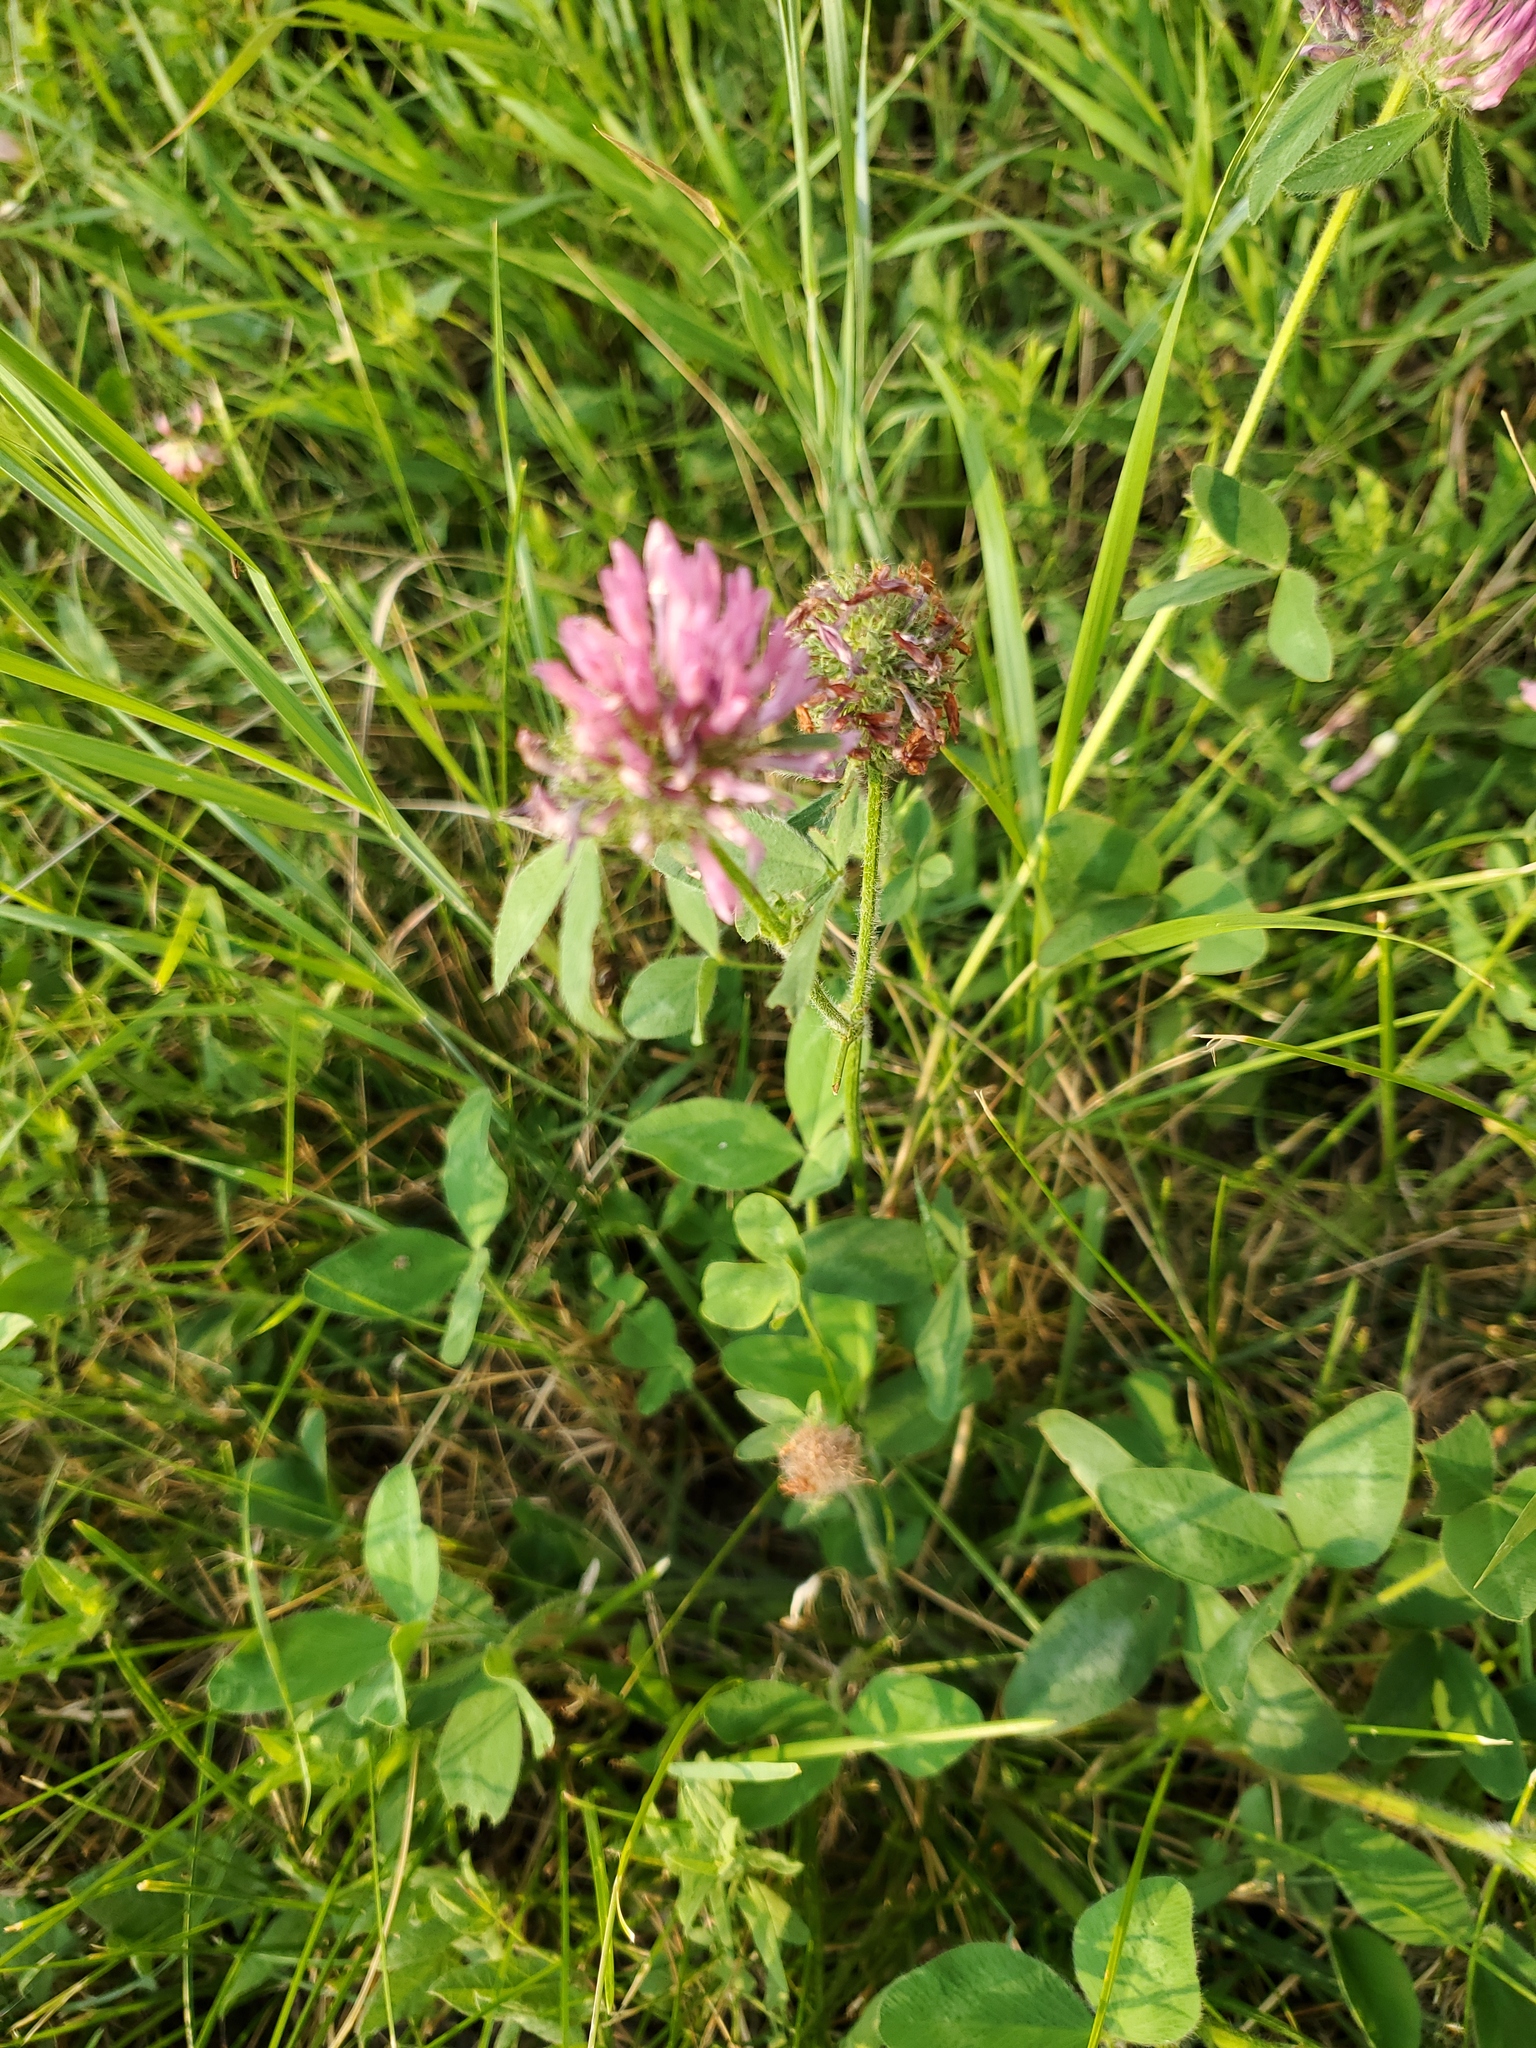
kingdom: Plantae
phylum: Tracheophyta
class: Magnoliopsida
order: Fabales
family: Fabaceae
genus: Trifolium
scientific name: Trifolium pratense
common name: Red clover
